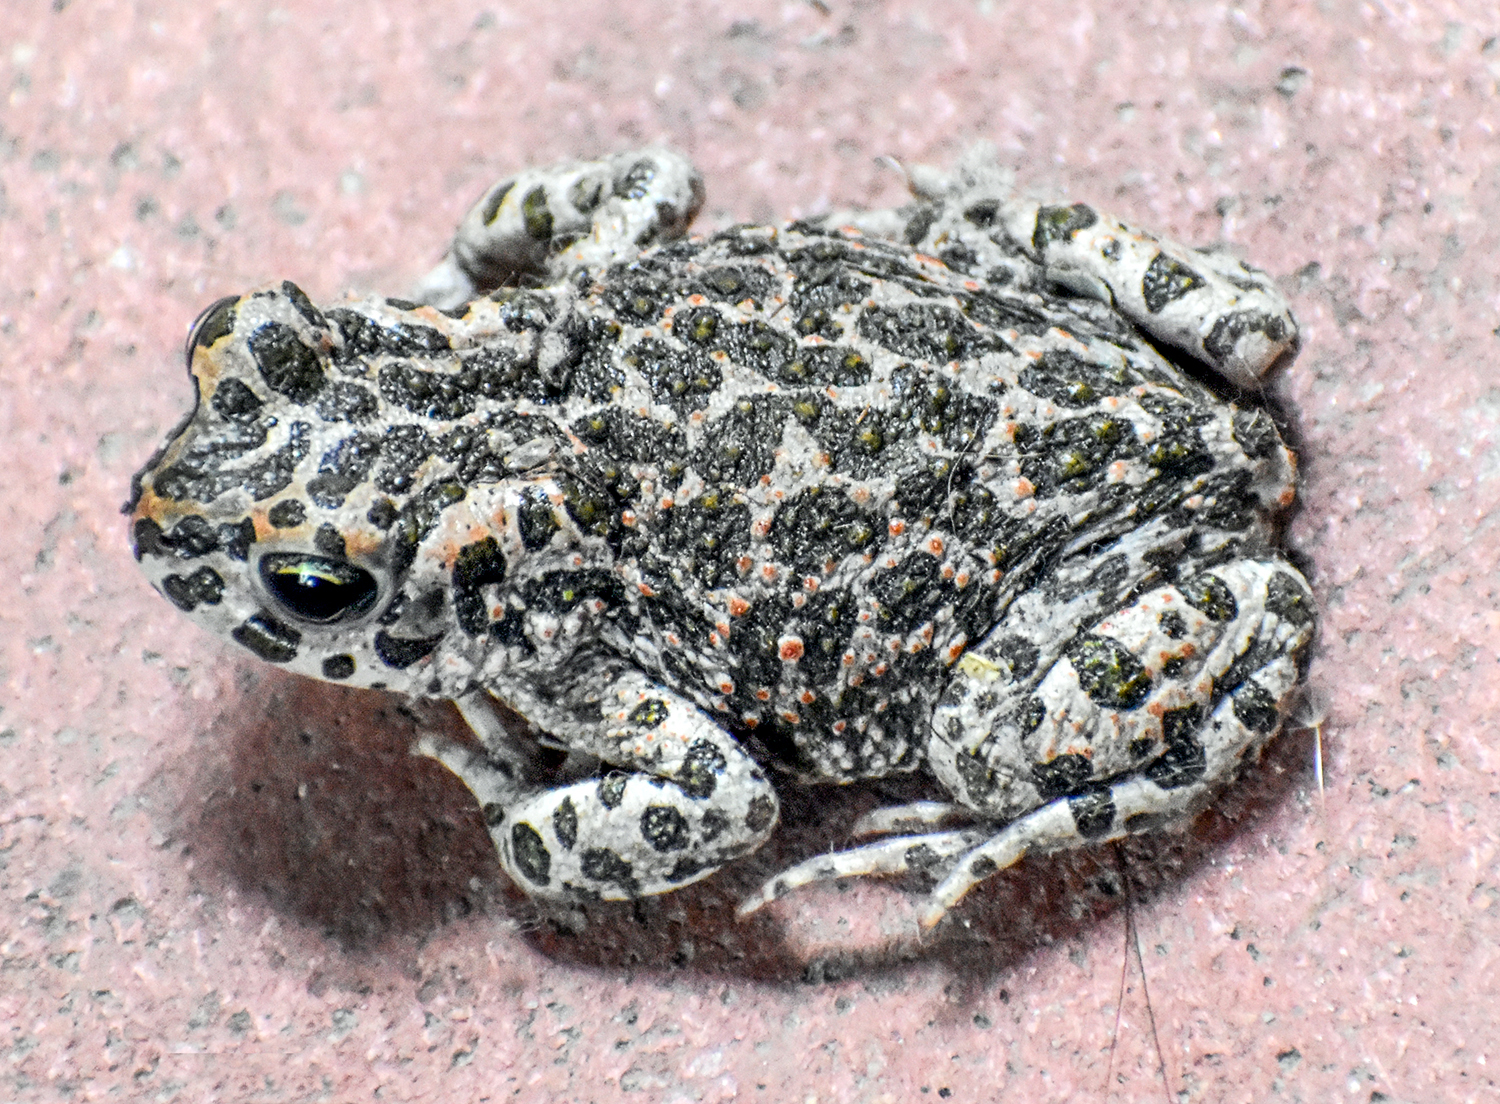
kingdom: Animalia
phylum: Chordata
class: Amphibia
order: Anura
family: Bufonidae
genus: Bufotes
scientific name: Bufotes viridis
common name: European green toad
